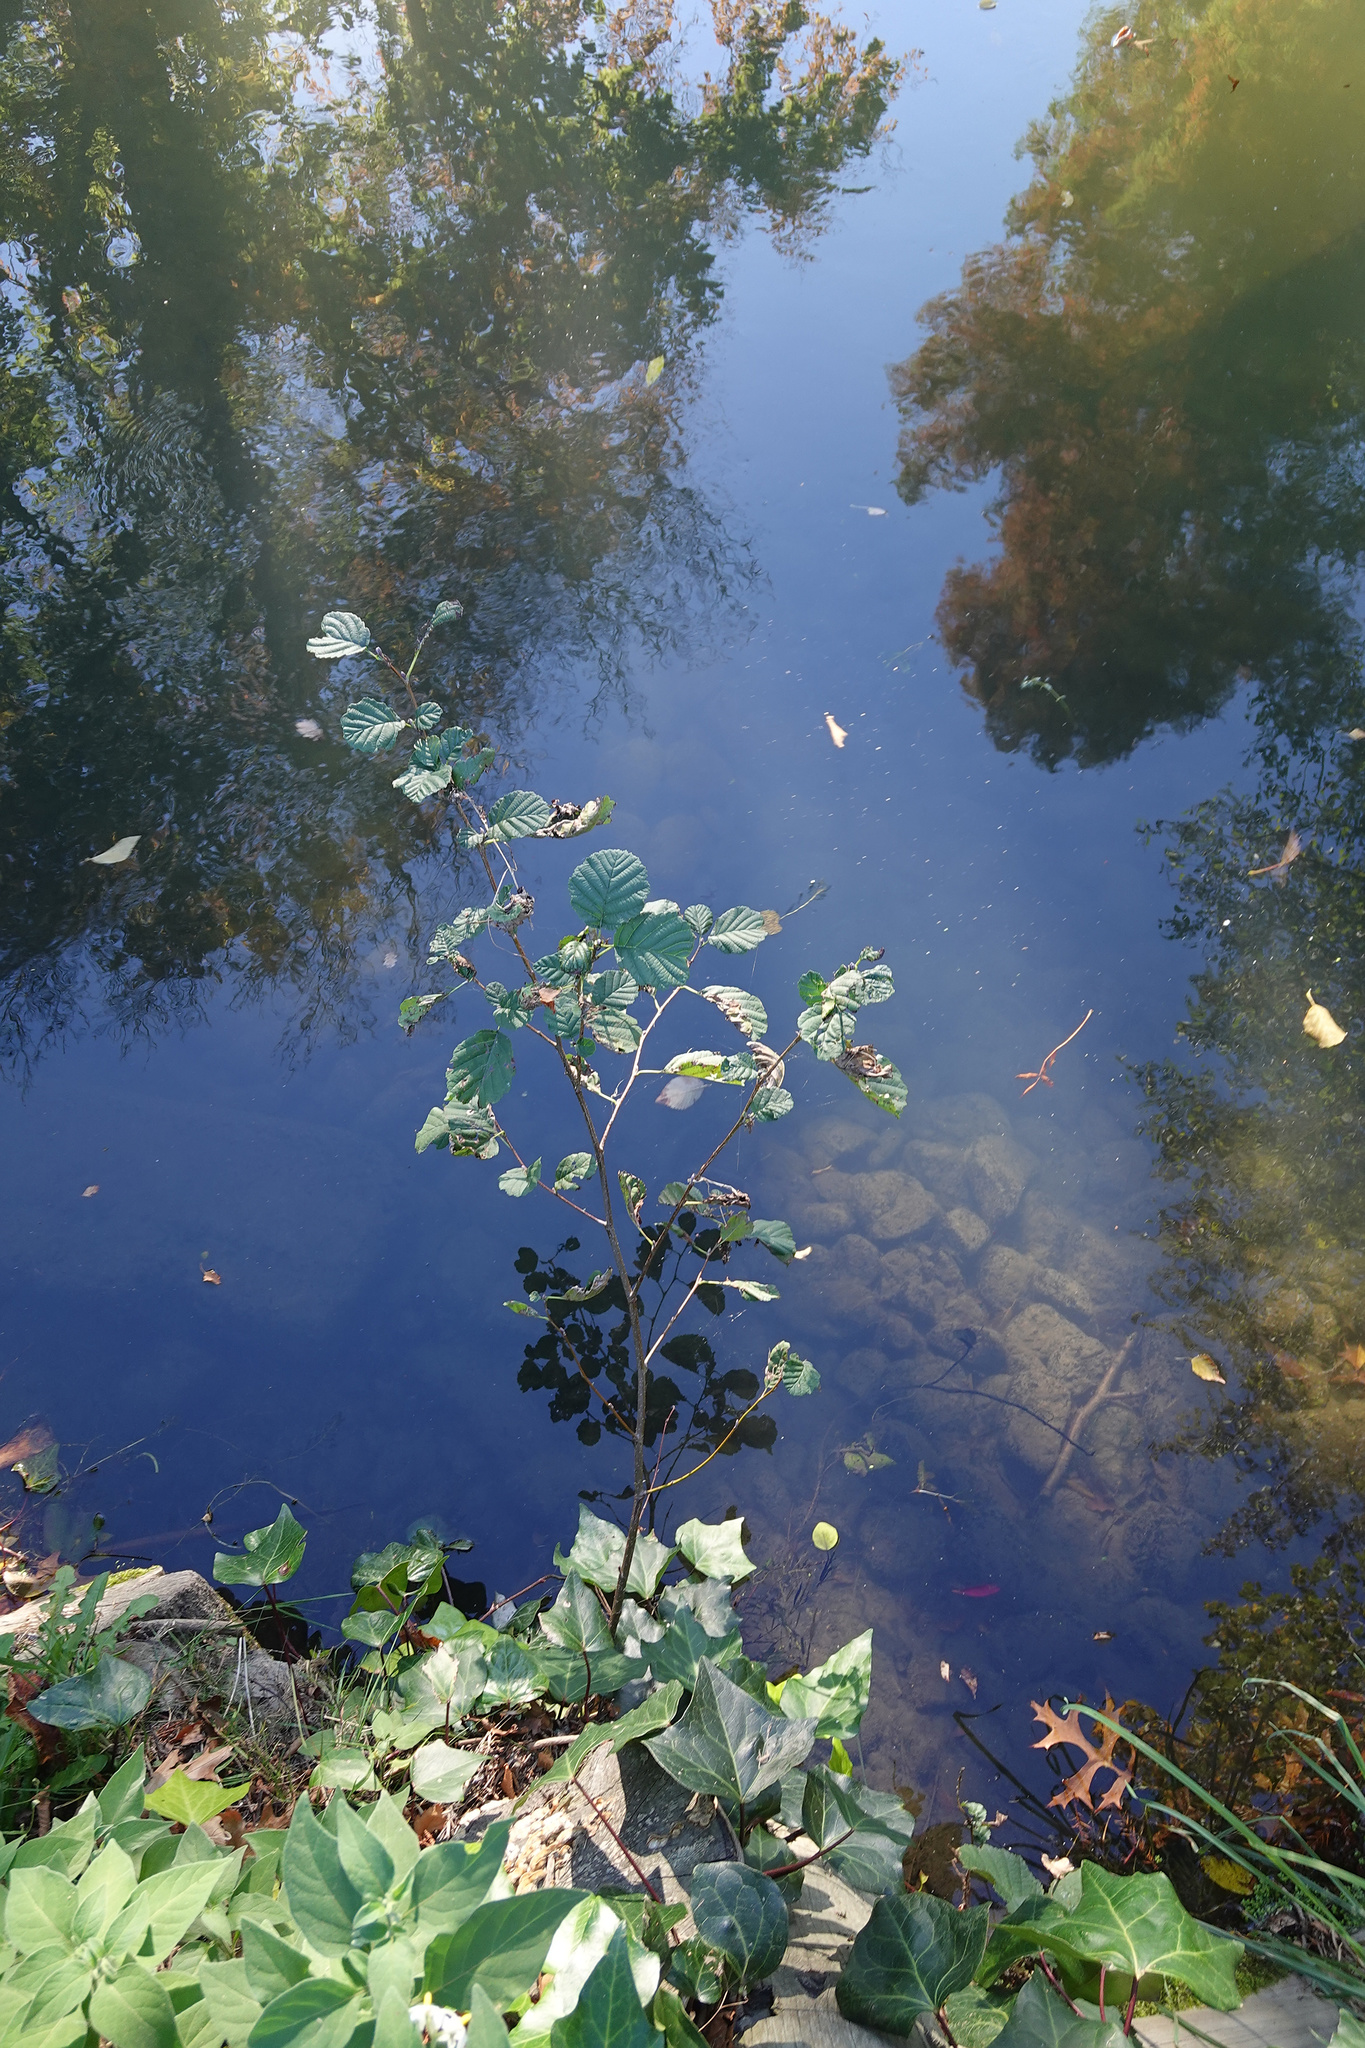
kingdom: Plantae
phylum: Tracheophyta
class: Magnoliopsida
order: Fagales
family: Betulaceae
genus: Alnus
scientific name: Alnus glutinosa
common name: Black alder
